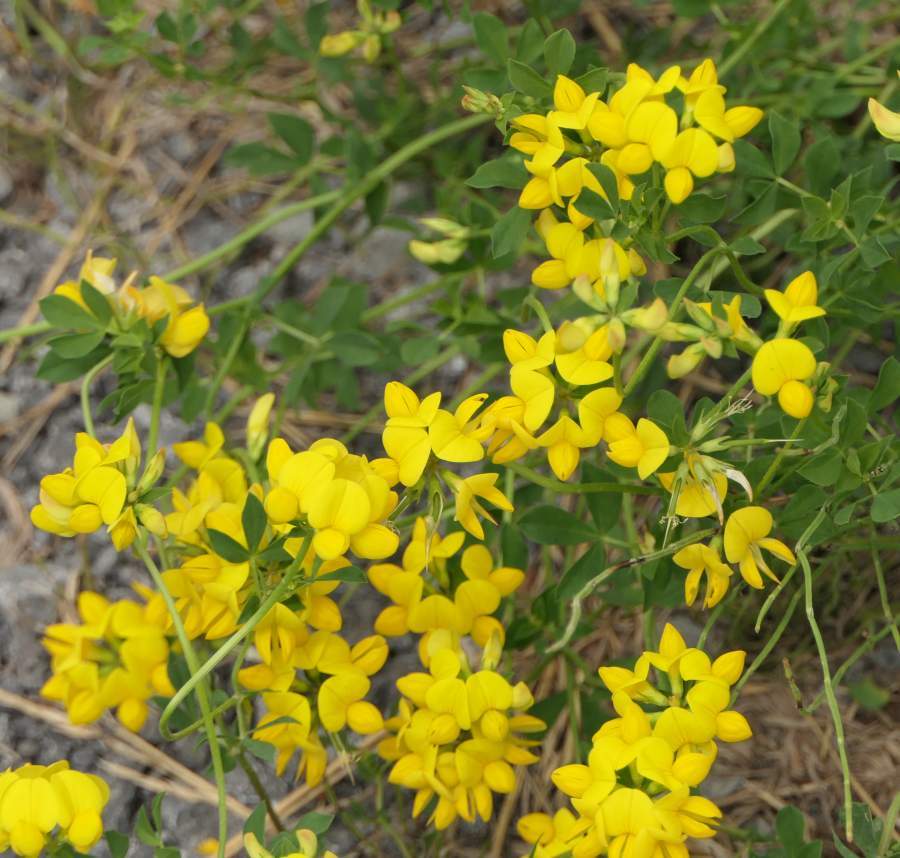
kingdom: Plantae
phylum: Tracheophyta
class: Magnoliopsida
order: Fabales
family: Fabaceae
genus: Lotus
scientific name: Lotus corniculatus
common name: Common bird's-foot-trefoil
